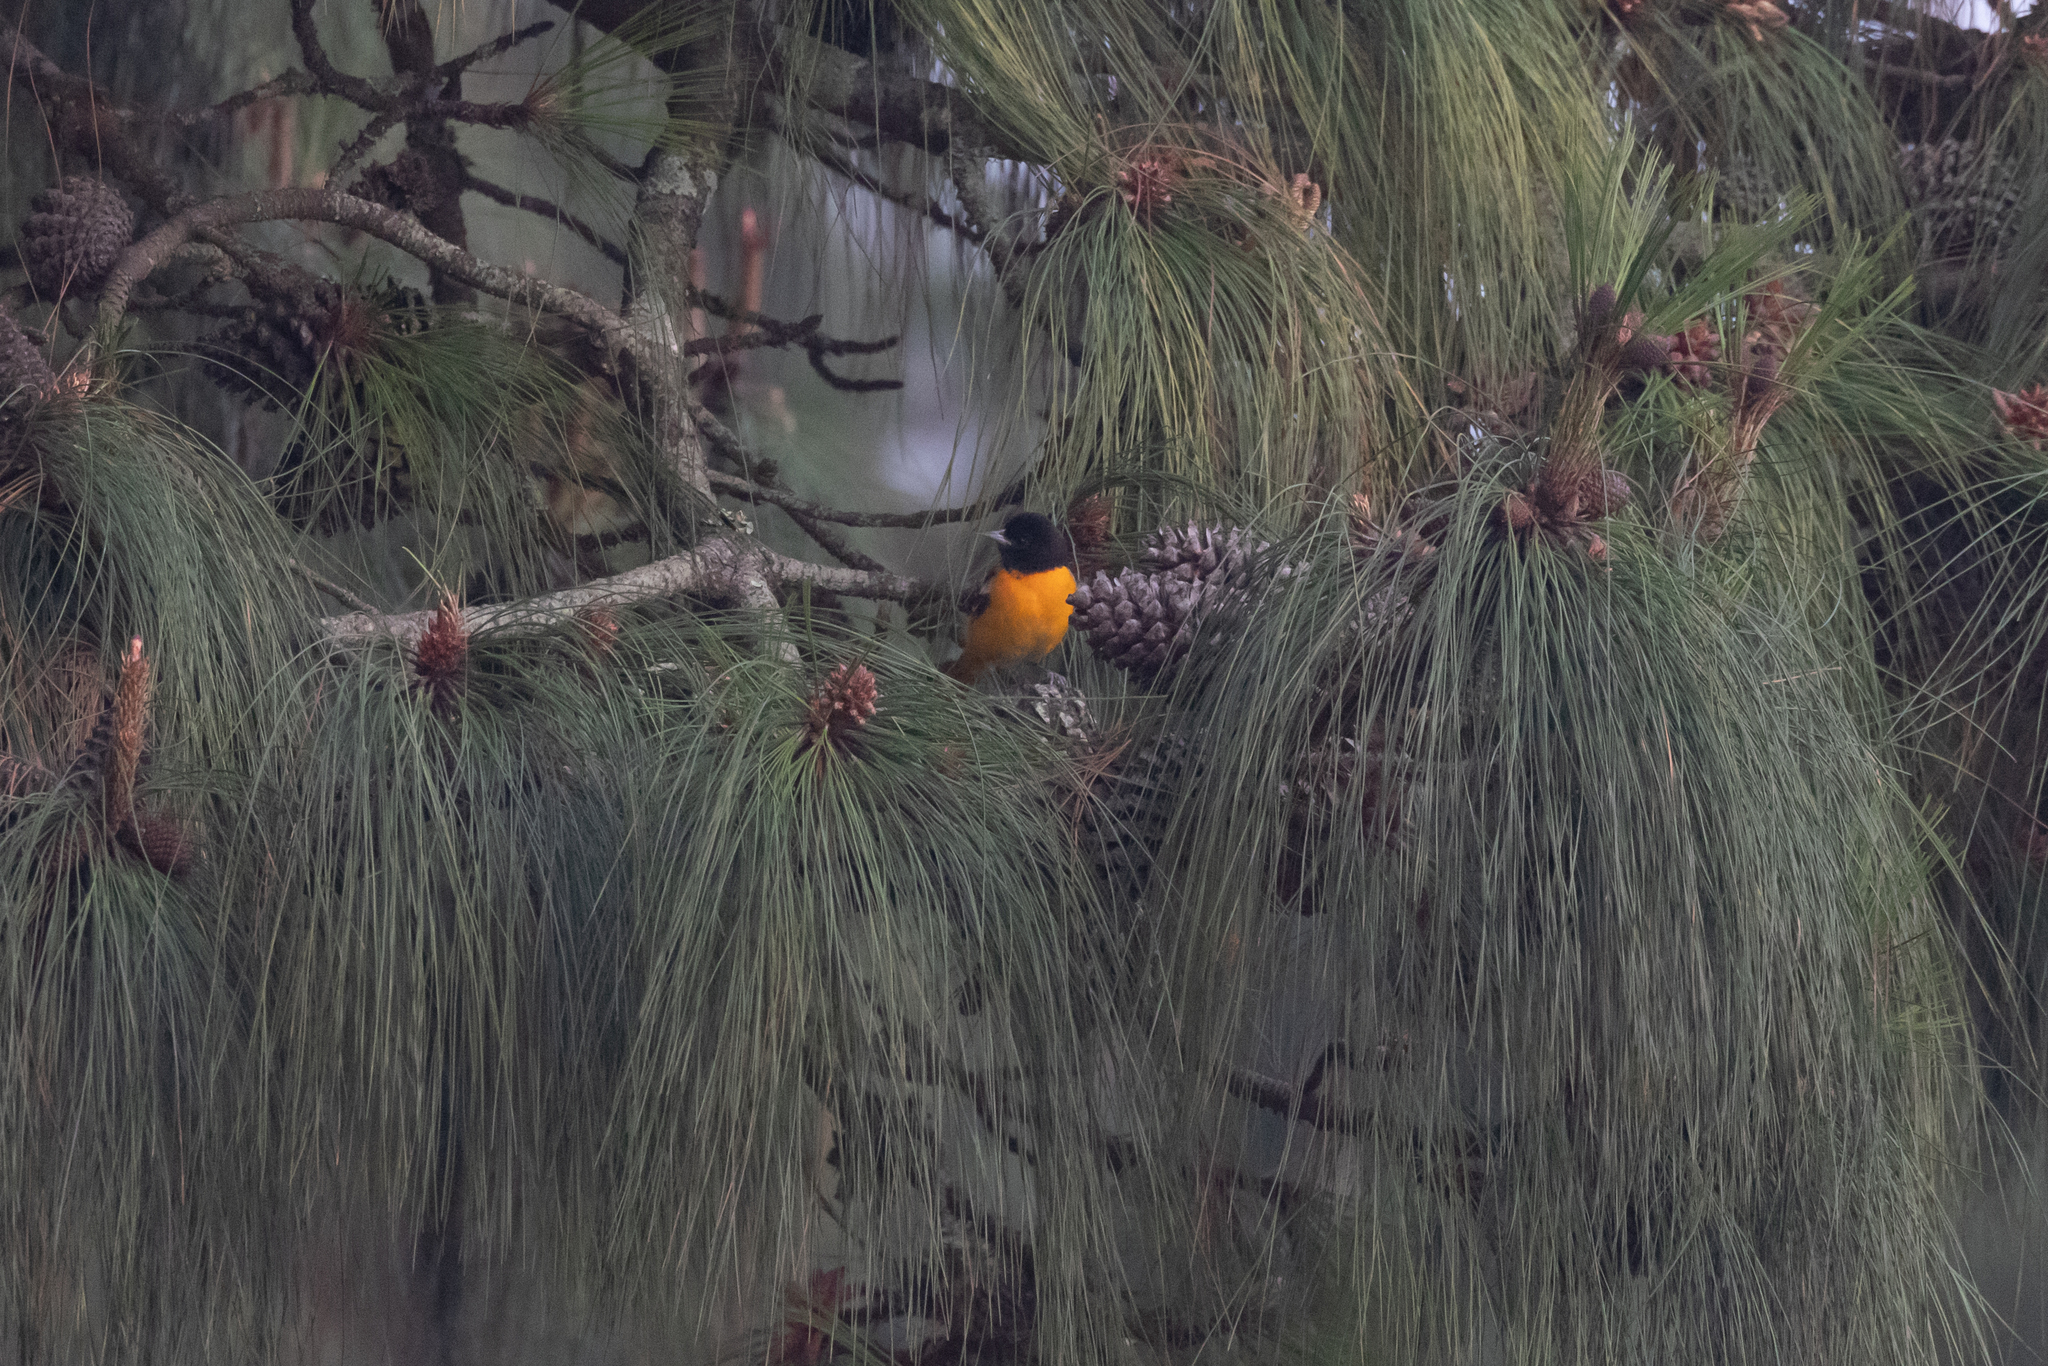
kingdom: Animalia
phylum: Chordata
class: Aves
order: Passeriformes
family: Icteridae
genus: Icterus
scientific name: Icterus galbula
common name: Baltimore oriole
